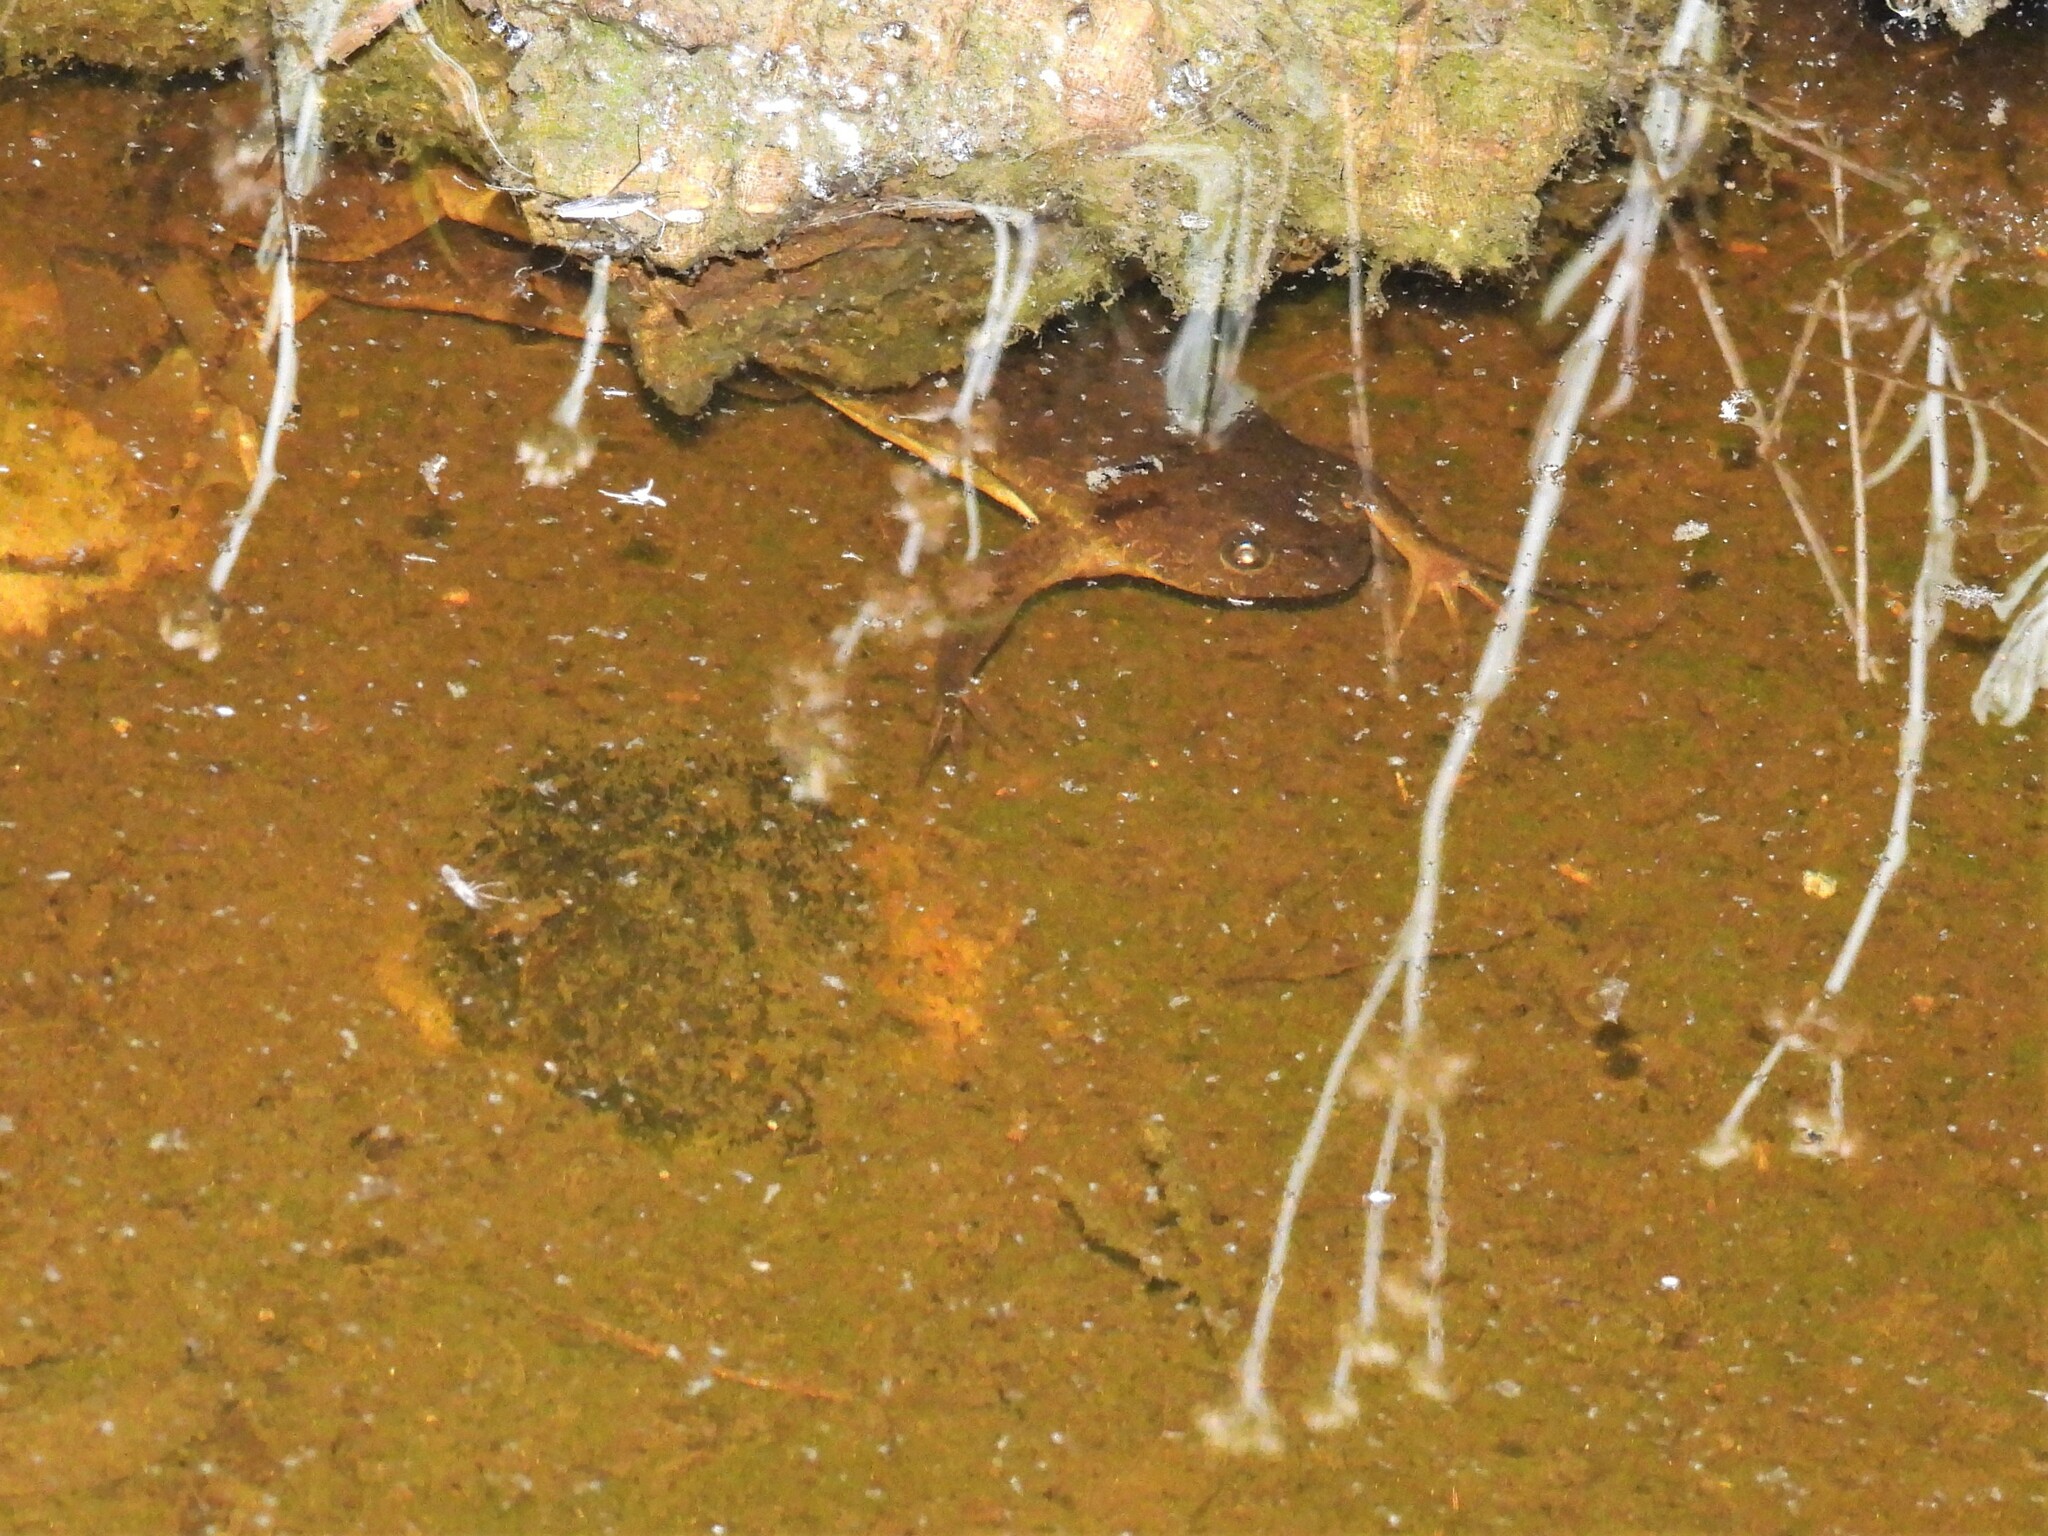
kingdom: Animalia
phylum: Chordata
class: Amphibia
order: Anura
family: Pipidae
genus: Xenopus
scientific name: Xenopus laevis
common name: African clawed frog
